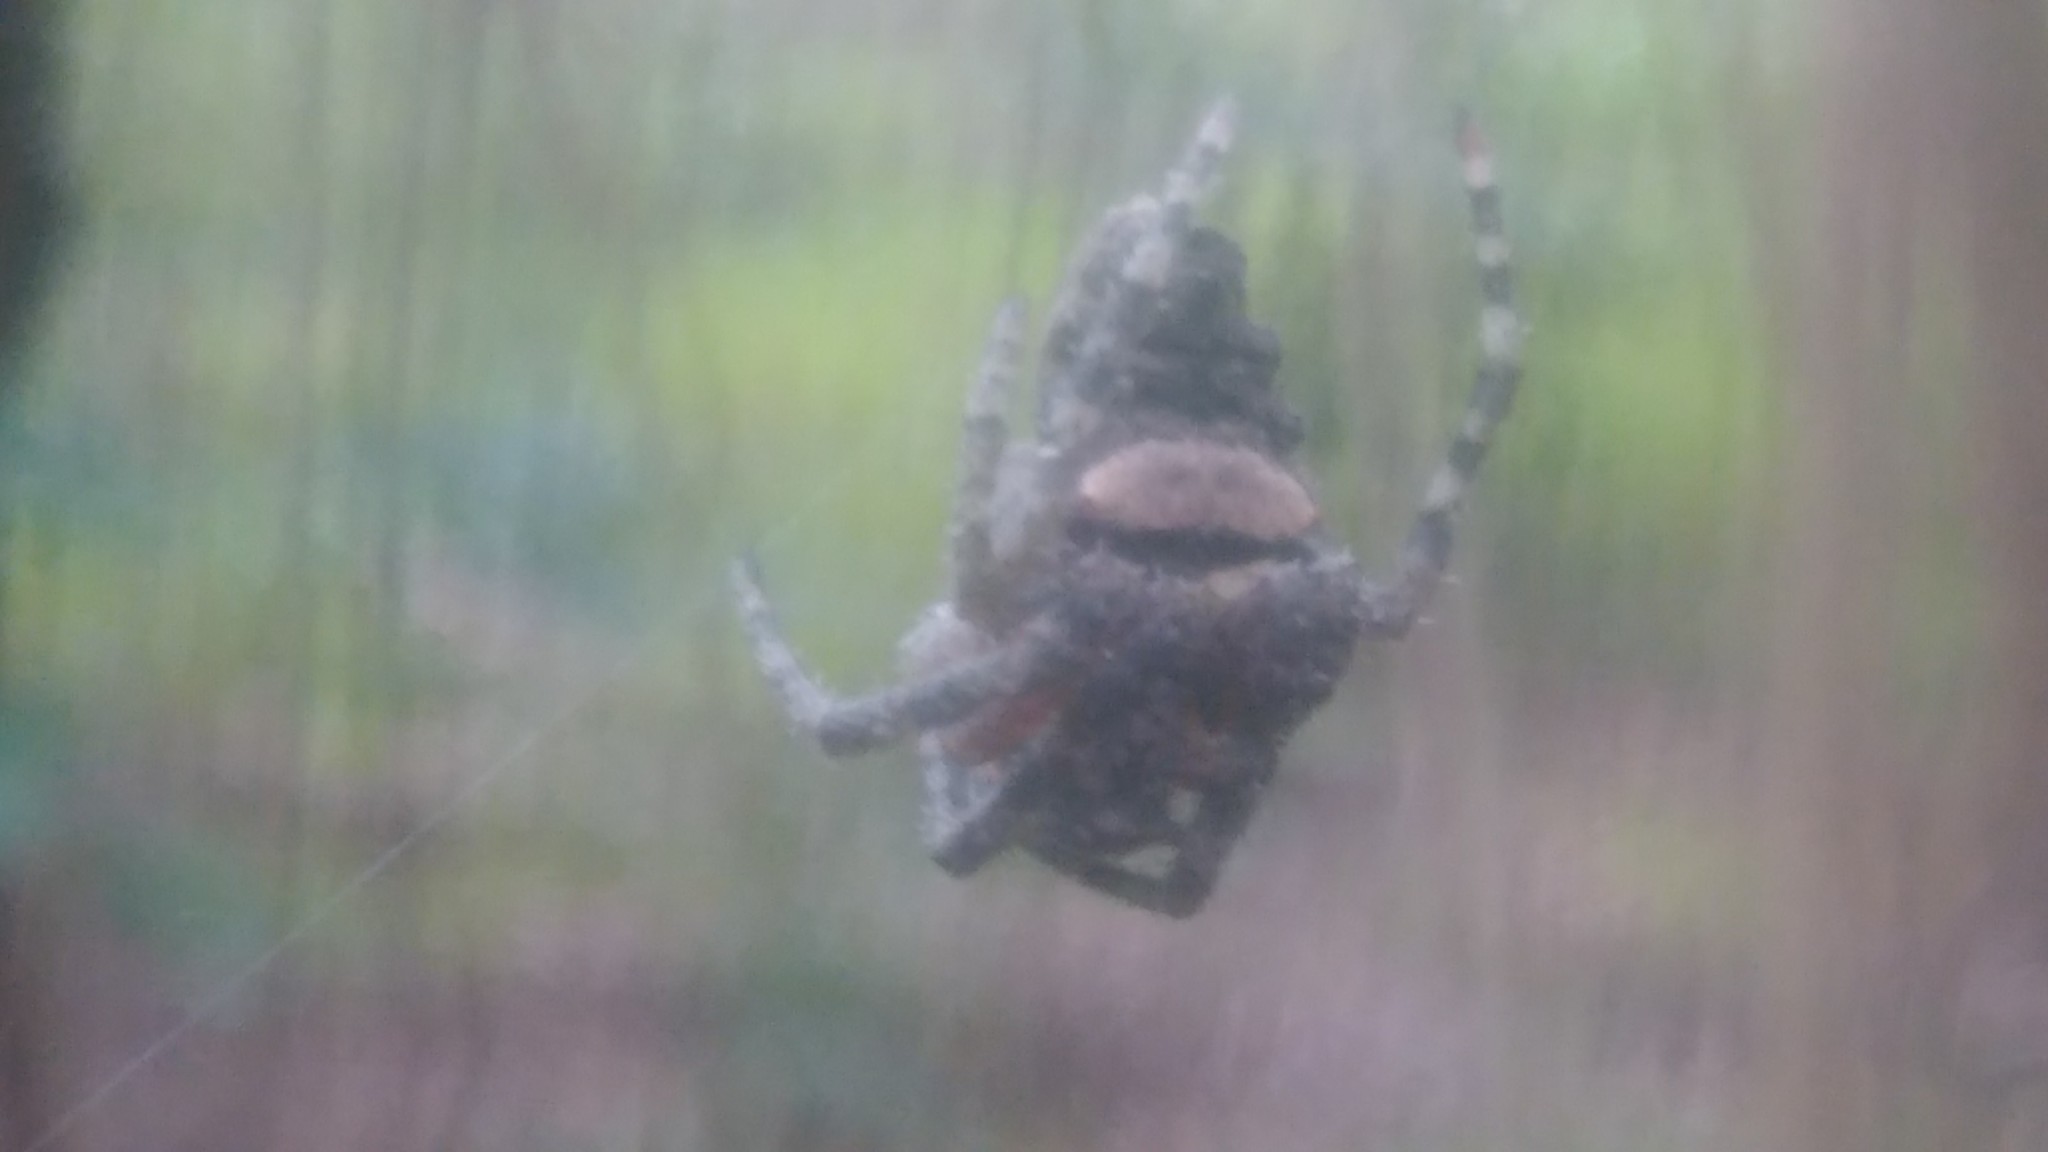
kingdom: Animalia
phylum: Arthropoda
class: Arachnida
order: Araneae
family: Araneidae
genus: Parawixia
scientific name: Parawixia audax
